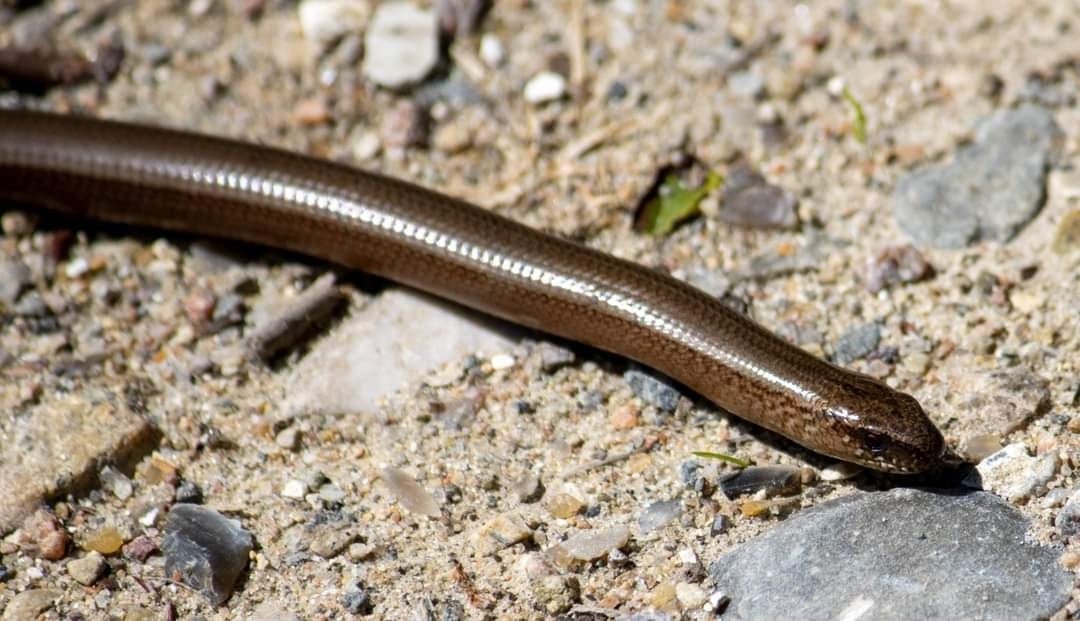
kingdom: Animalia
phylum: Chordata
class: Squamata
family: Anguidae
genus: Anguis
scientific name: Anguis fragilis
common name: Slow worm
